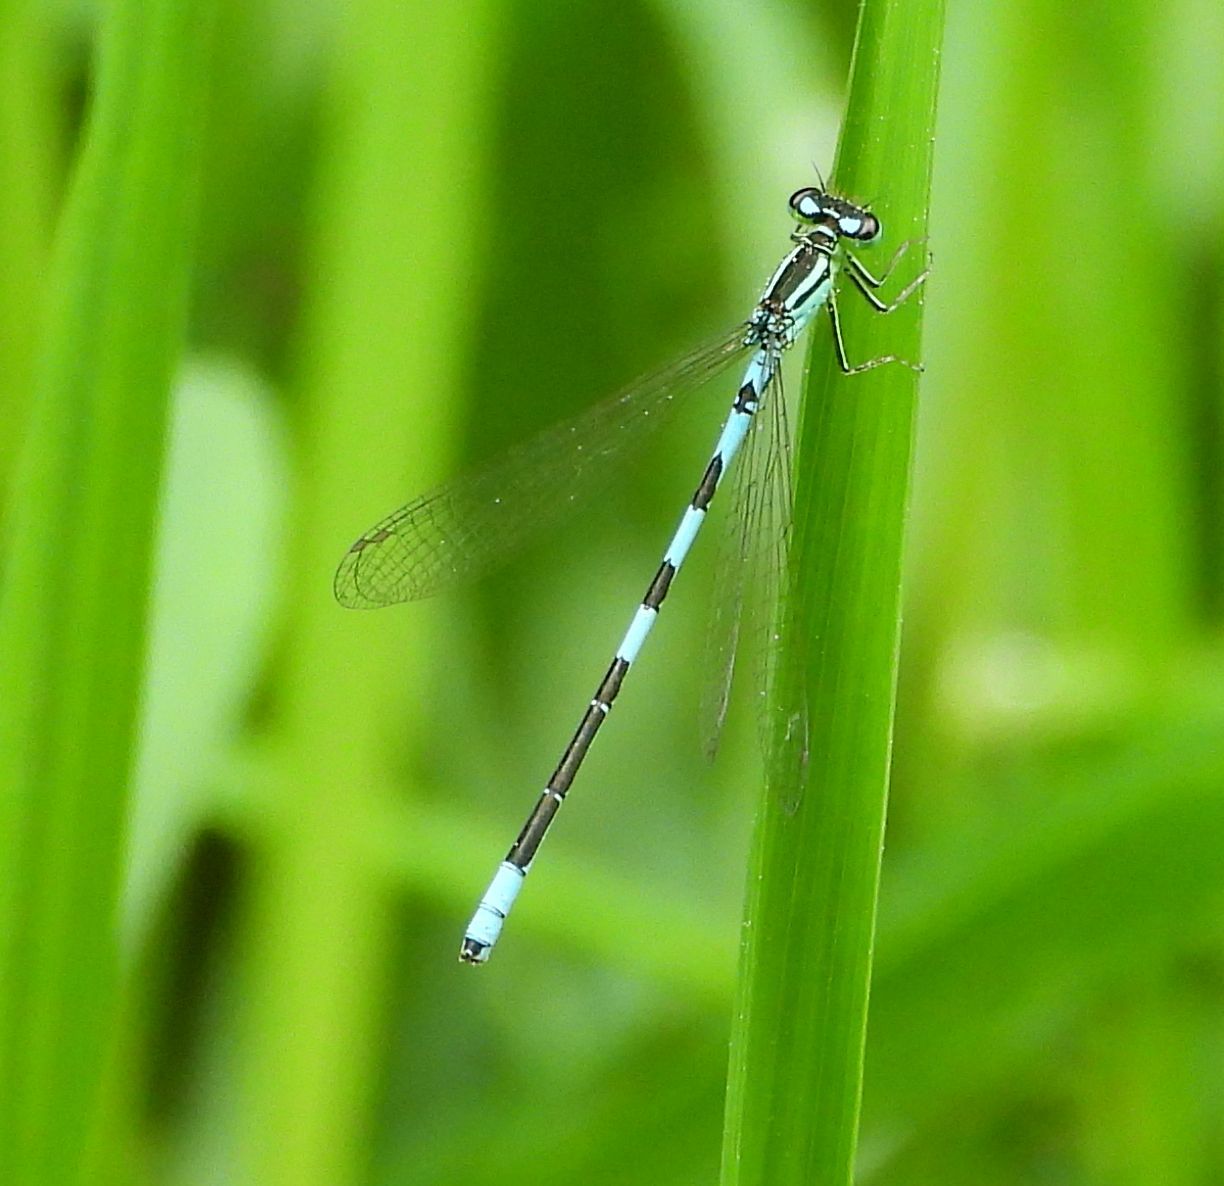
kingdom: Animalia
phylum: Arthropoda
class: Insecta
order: Odonata
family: Coenagrionidae
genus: Coenagrion
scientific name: Coenagrion resolutum
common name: Taiga bluet
